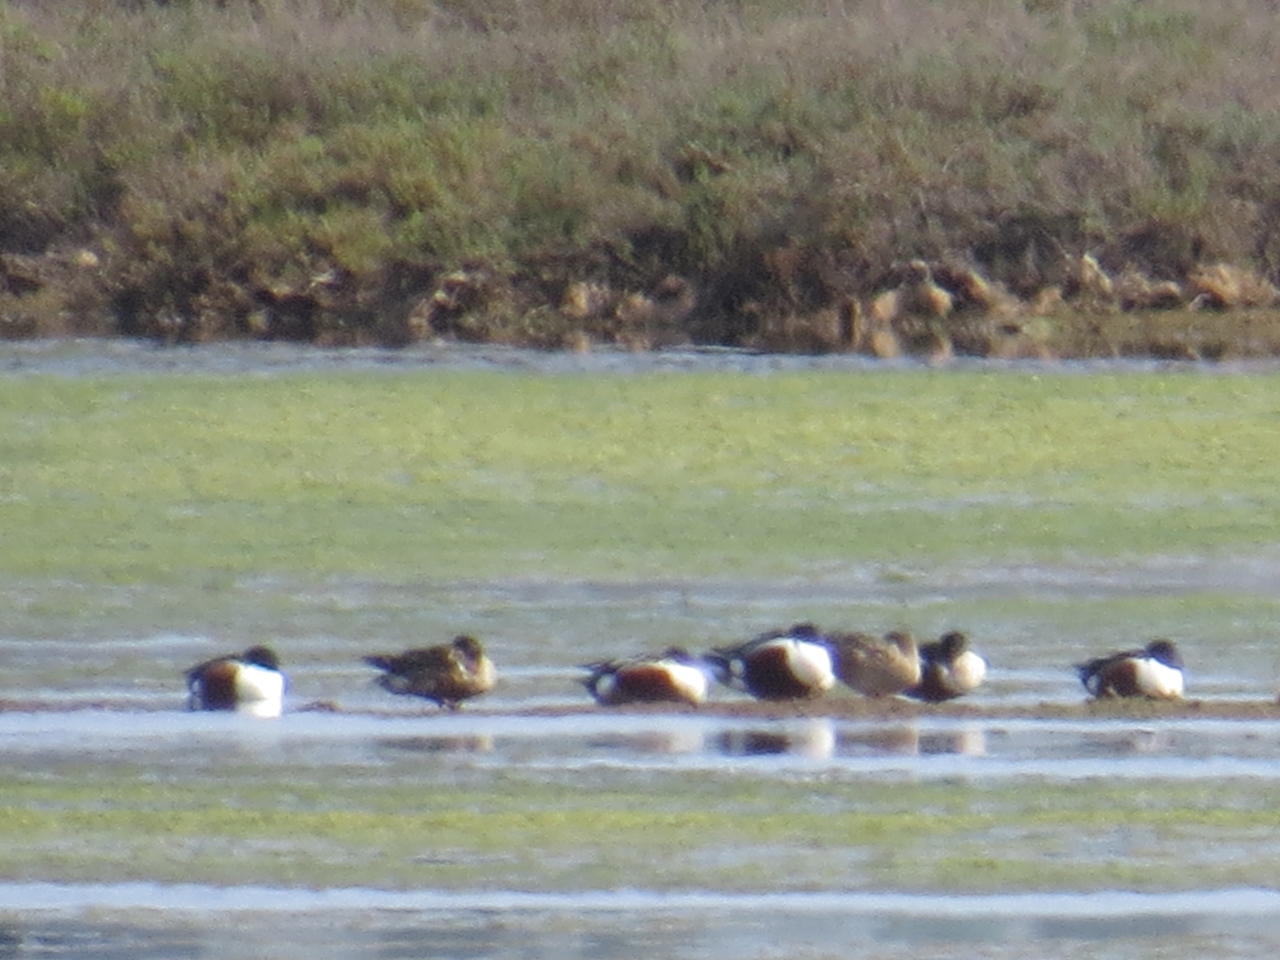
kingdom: Animalia
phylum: Chordata
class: Aves
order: Anseriformes
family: Anatidae
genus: Spatula
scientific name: Spatula clypeata
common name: Northern shoveler
